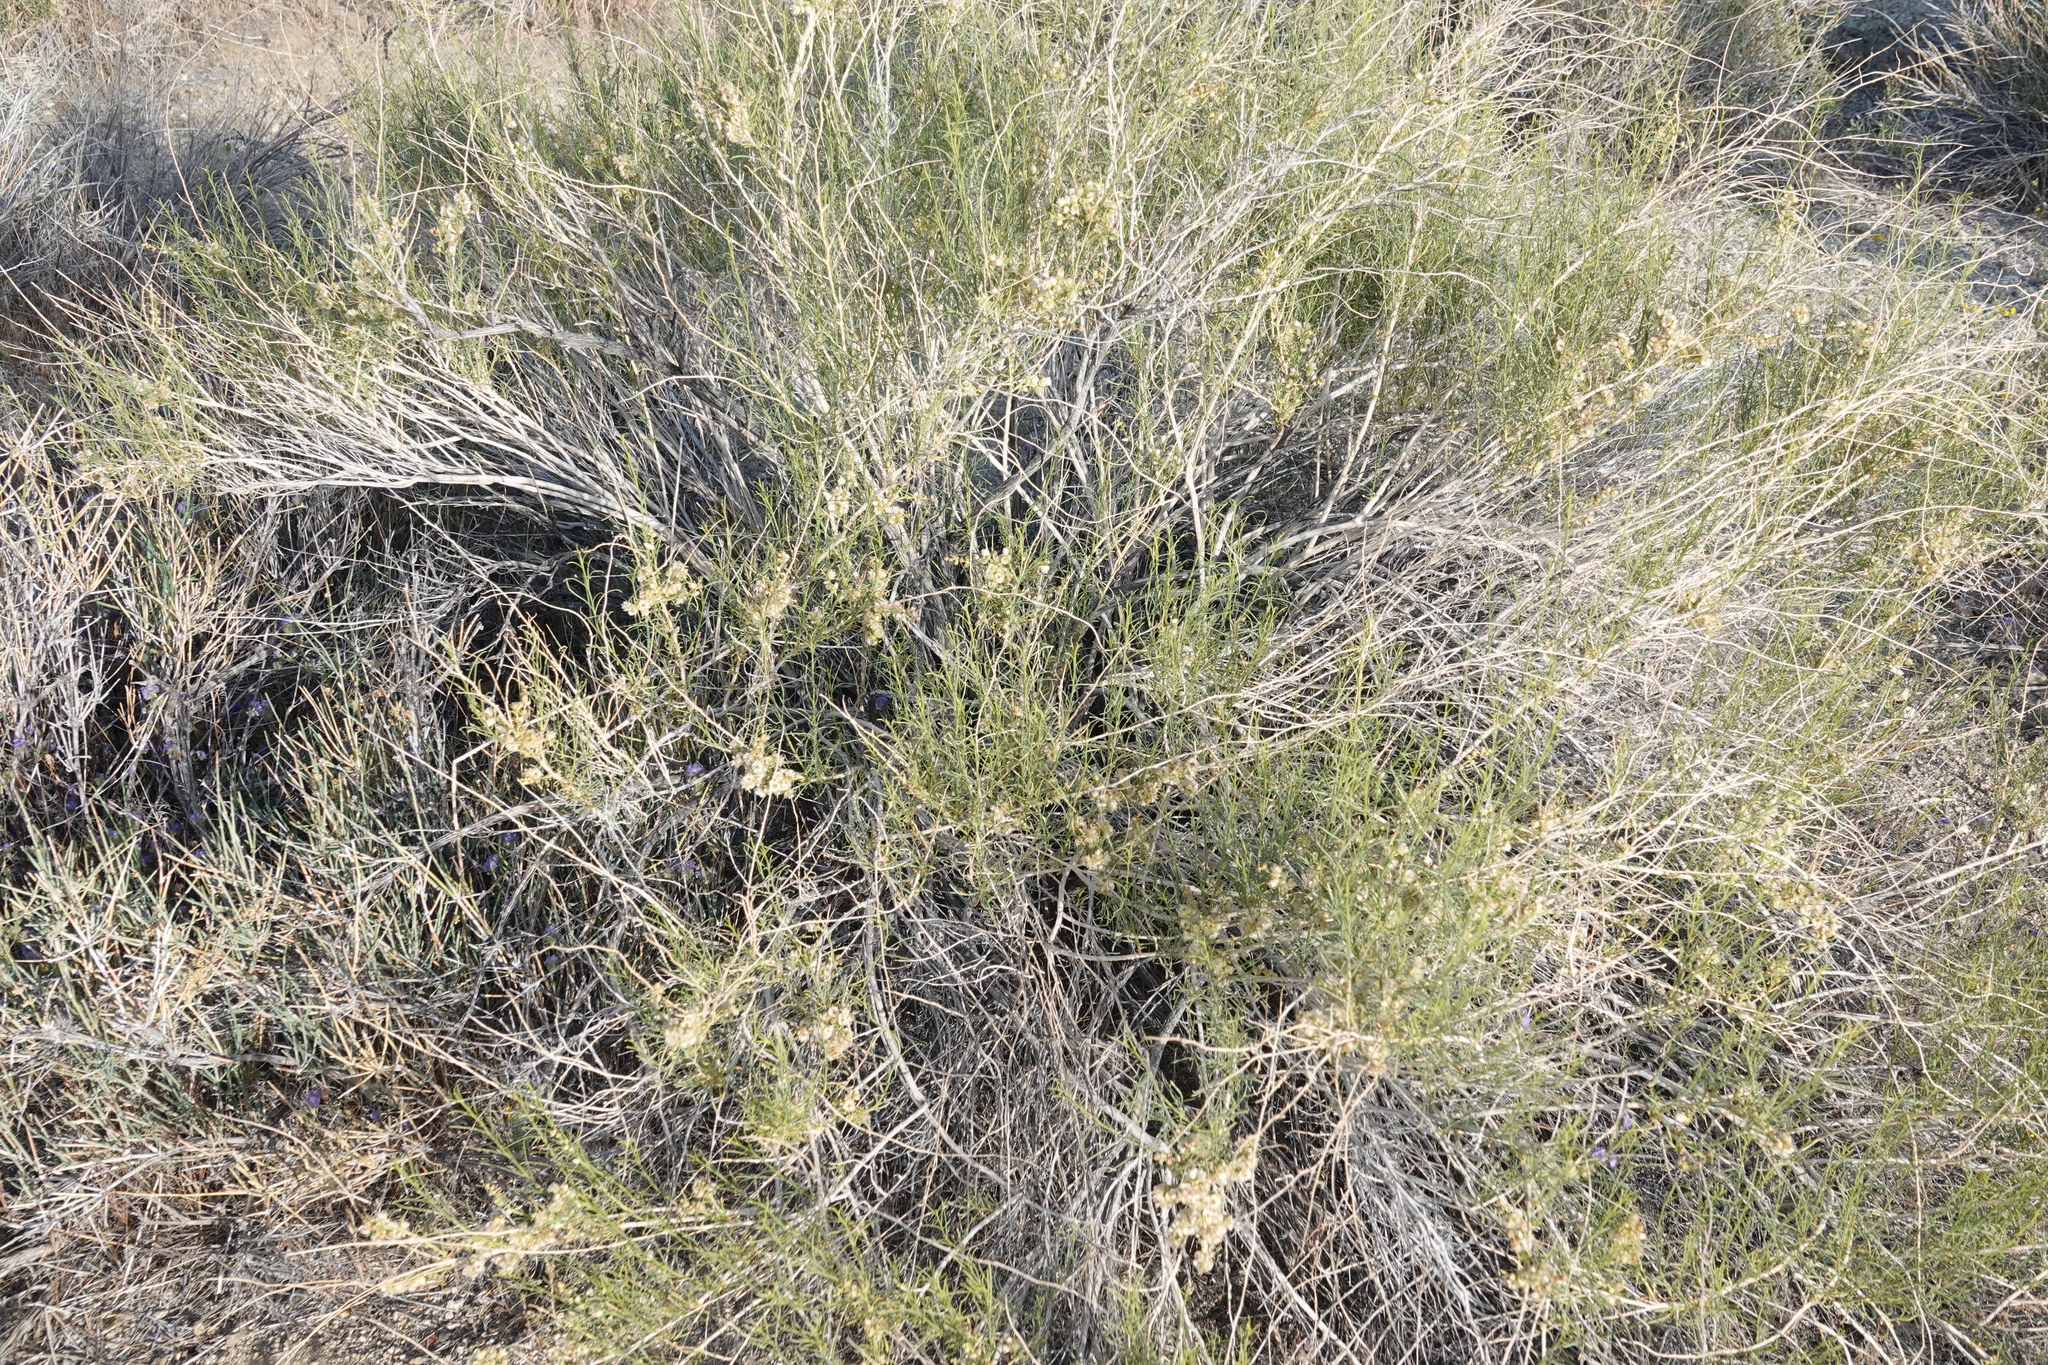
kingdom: Plantae
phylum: Tracheophyta
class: Magnoliopsida
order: Asterales
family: Asteraceae
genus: Ambrosia
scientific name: Ambrosia salsola
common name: Burrobrush
